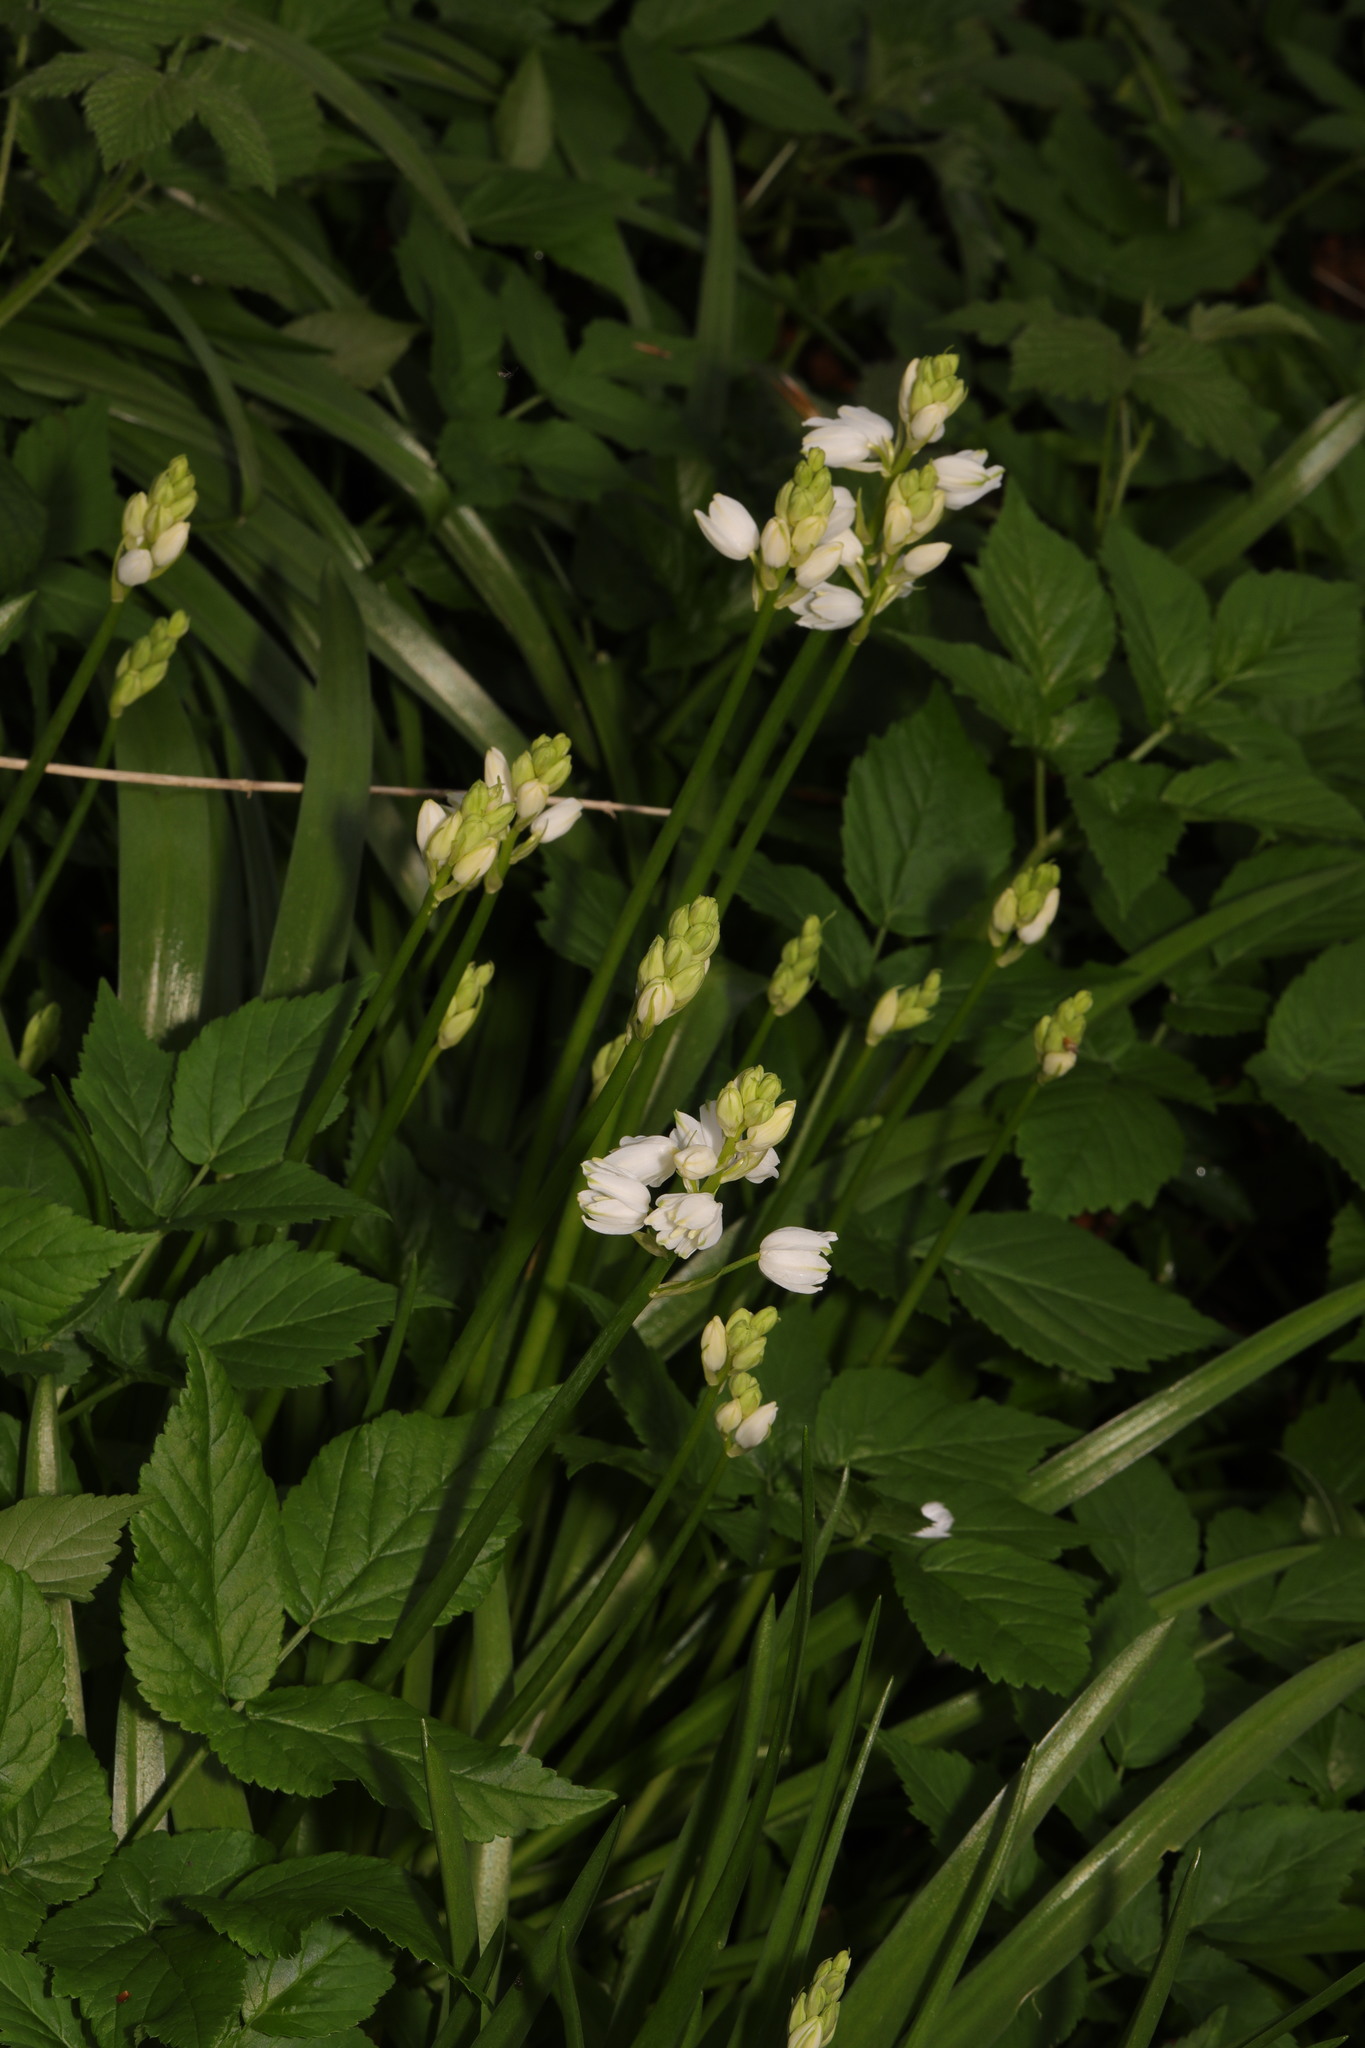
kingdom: Plantae
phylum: Tracheophyta
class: Liliopsida
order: Asparagales
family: Asparagaceae
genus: Hyacinthoides
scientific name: Hyacinthoides massartiana
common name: Hyacinthoides
